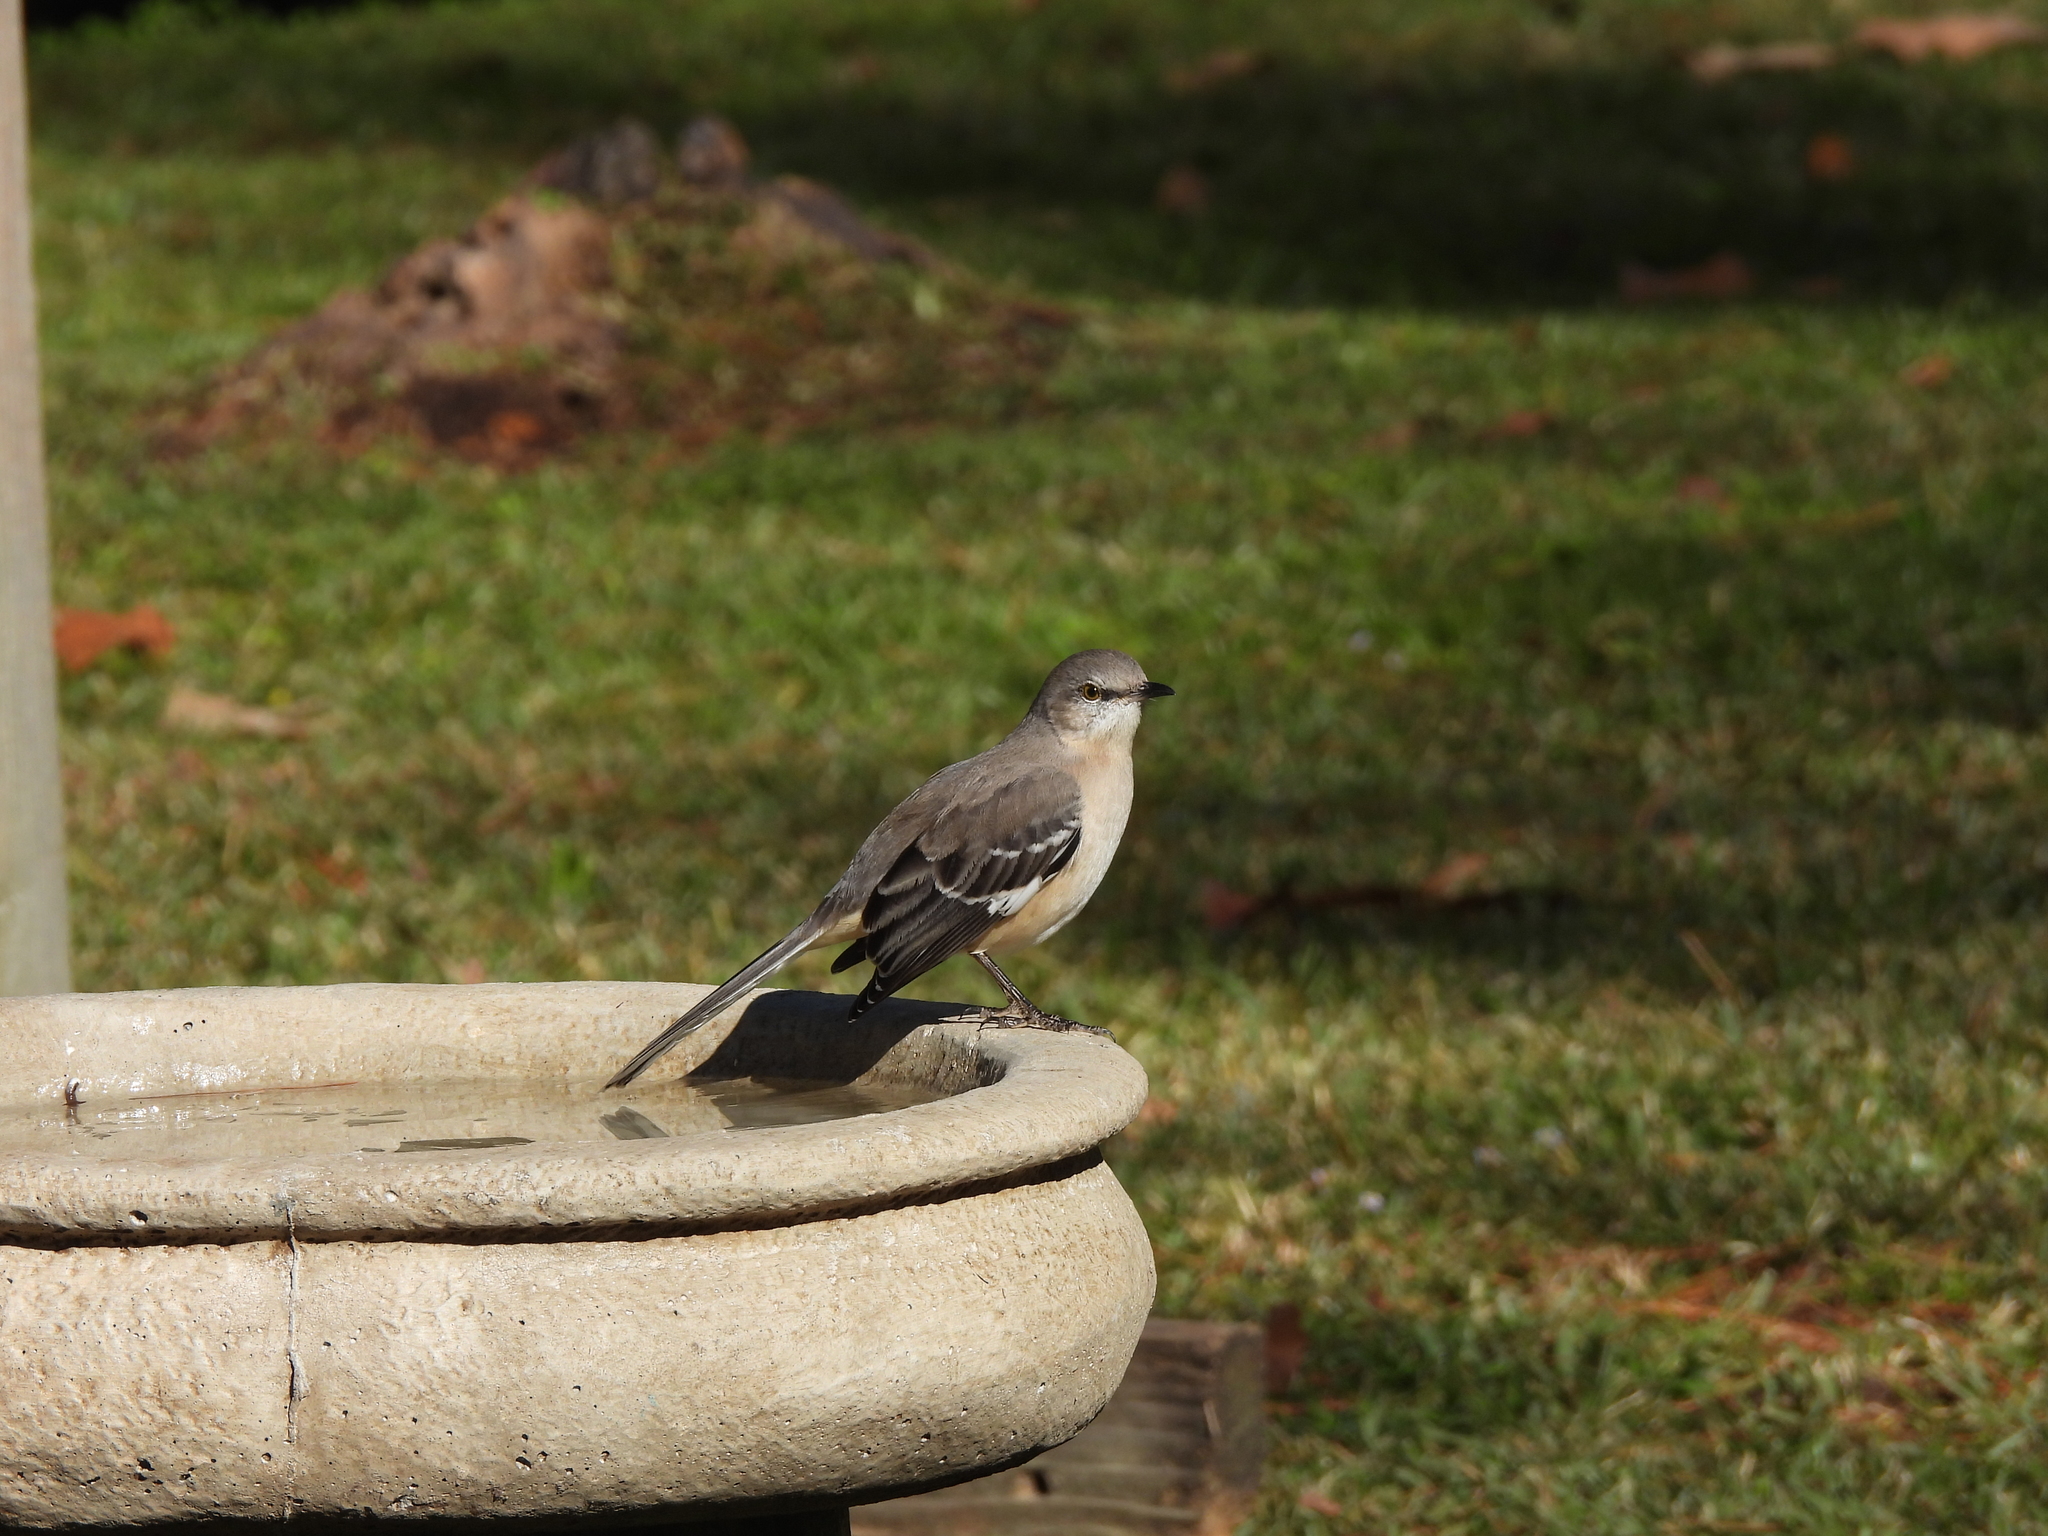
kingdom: Animalia
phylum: Chordata
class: Aves
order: Passeriformes
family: Mimidae
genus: Mimus
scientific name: Mimus polyglottos
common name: Northern mockingbird
